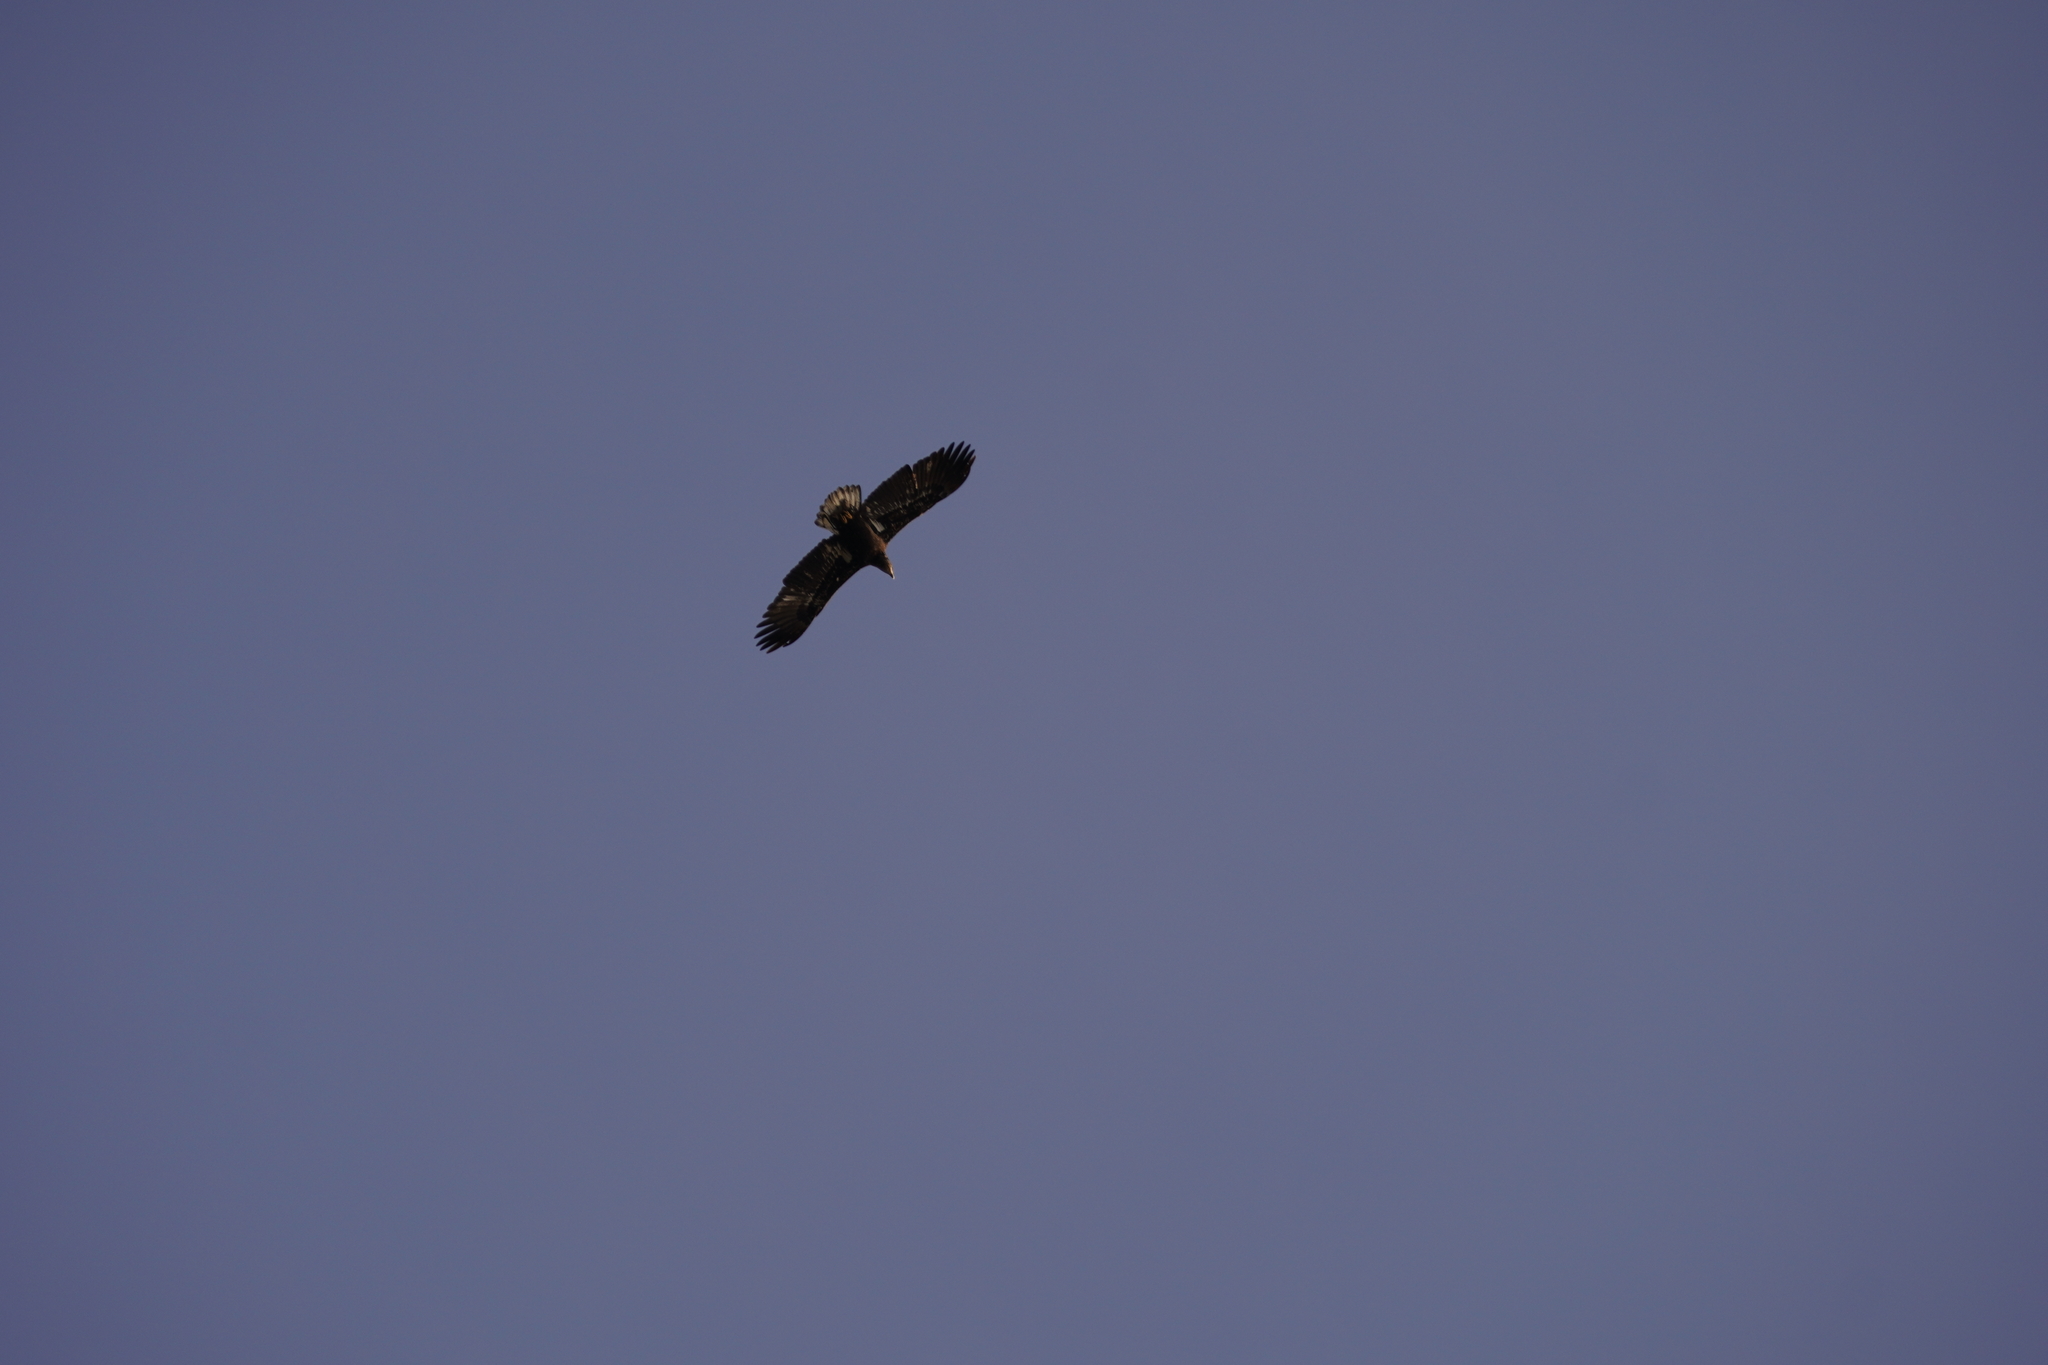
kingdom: Animalia
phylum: Chordata
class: Aves
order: Accipitriformes
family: Accipitridae
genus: Haliaeetus
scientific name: Haliaeetus leucocephalus
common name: Bald eagle
